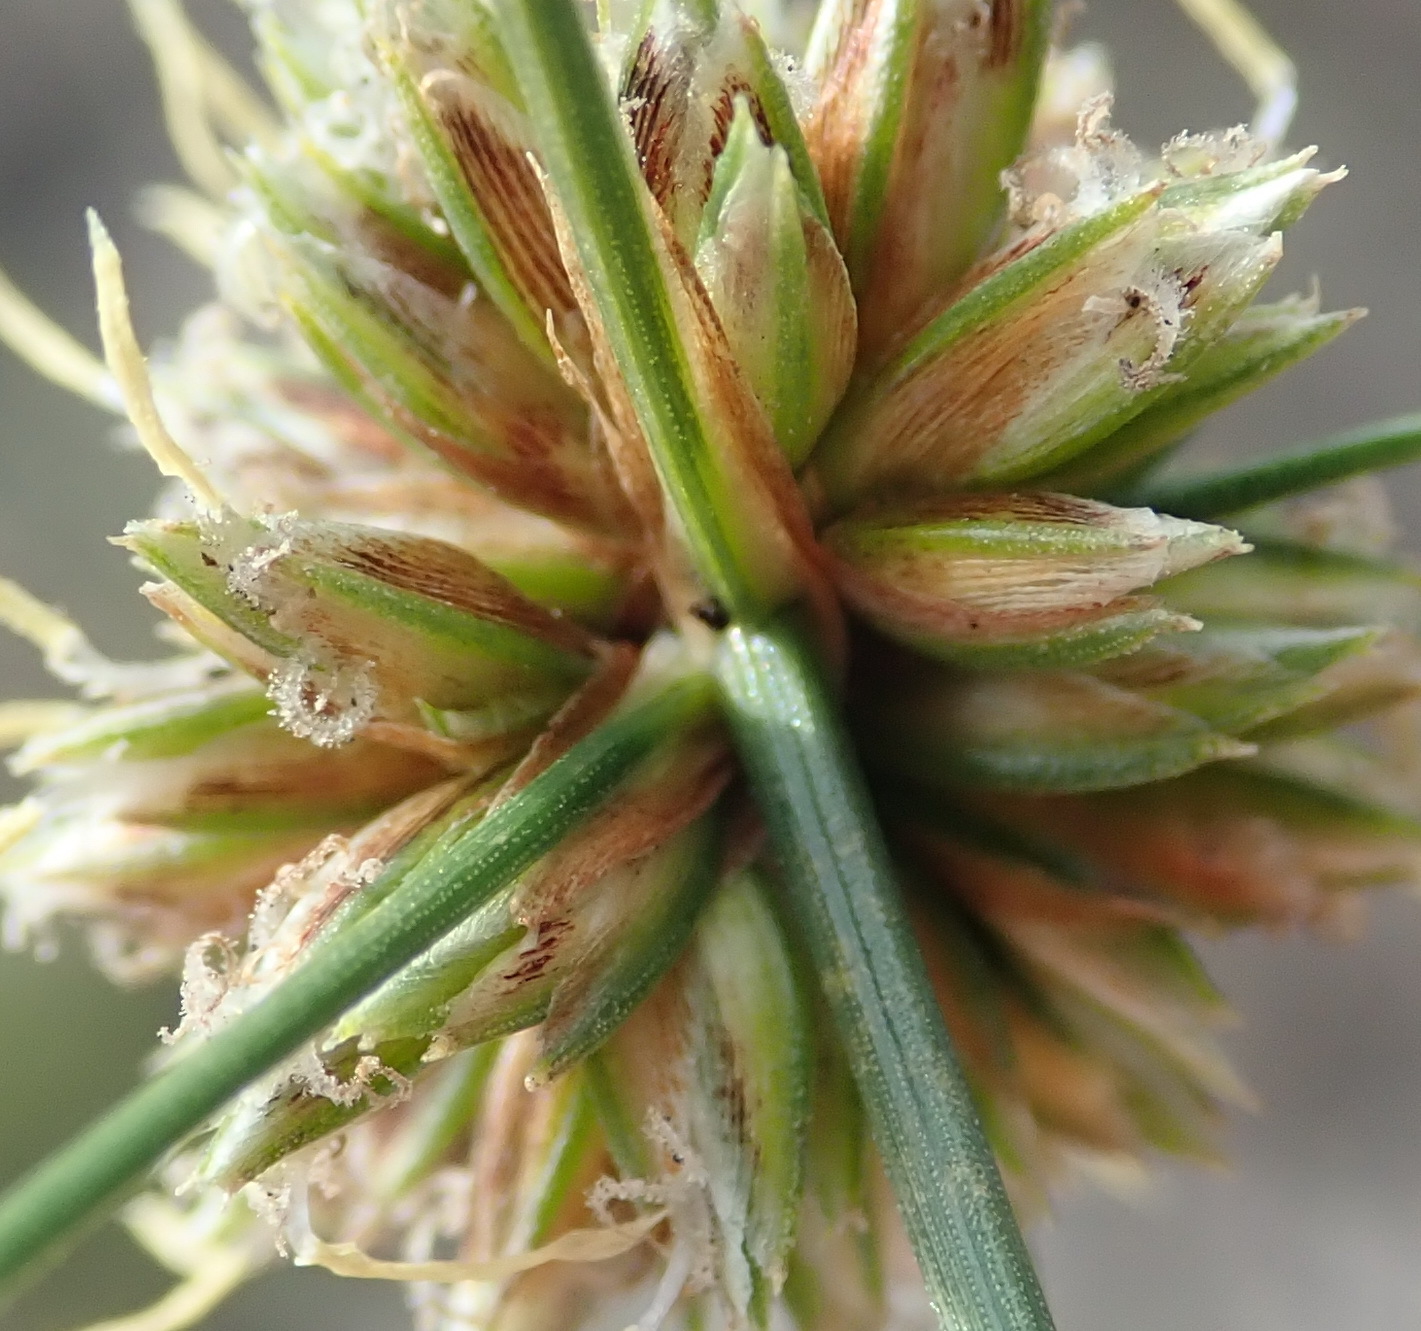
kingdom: Plantae
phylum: Tracheophyta
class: Liliopsida
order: Poales
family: Cyperaceae
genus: Ficinia
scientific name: Ficinia albicans
